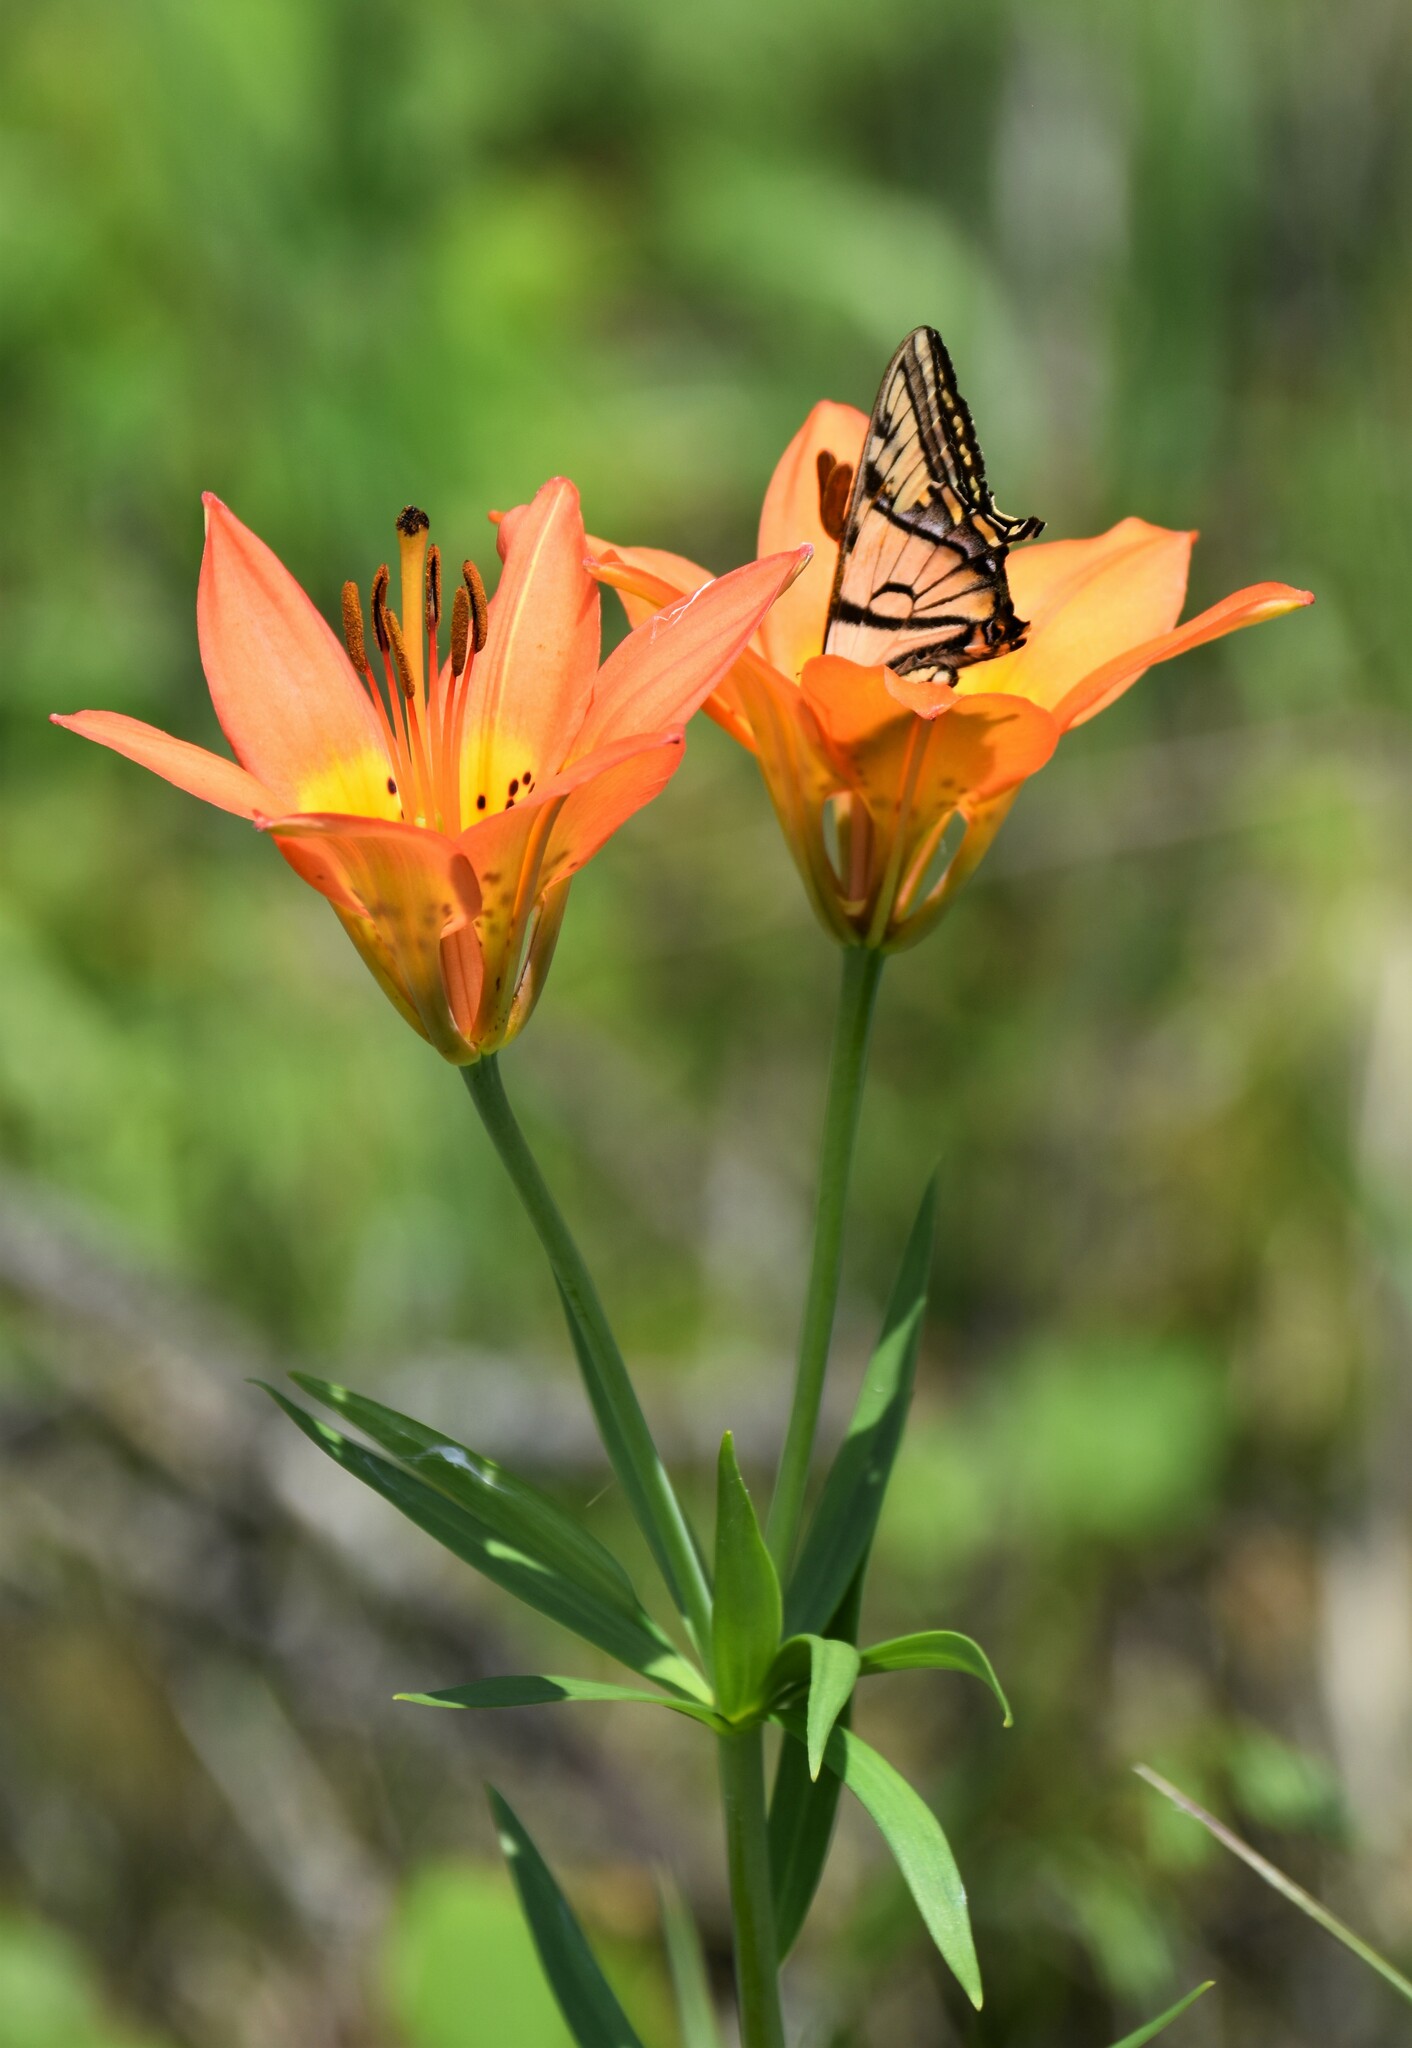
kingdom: Plantae
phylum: Tracheophyta
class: Liliopsida
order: Liliales
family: Liliaceae
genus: Lilium
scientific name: Lilium philadelphicum
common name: Red lily
